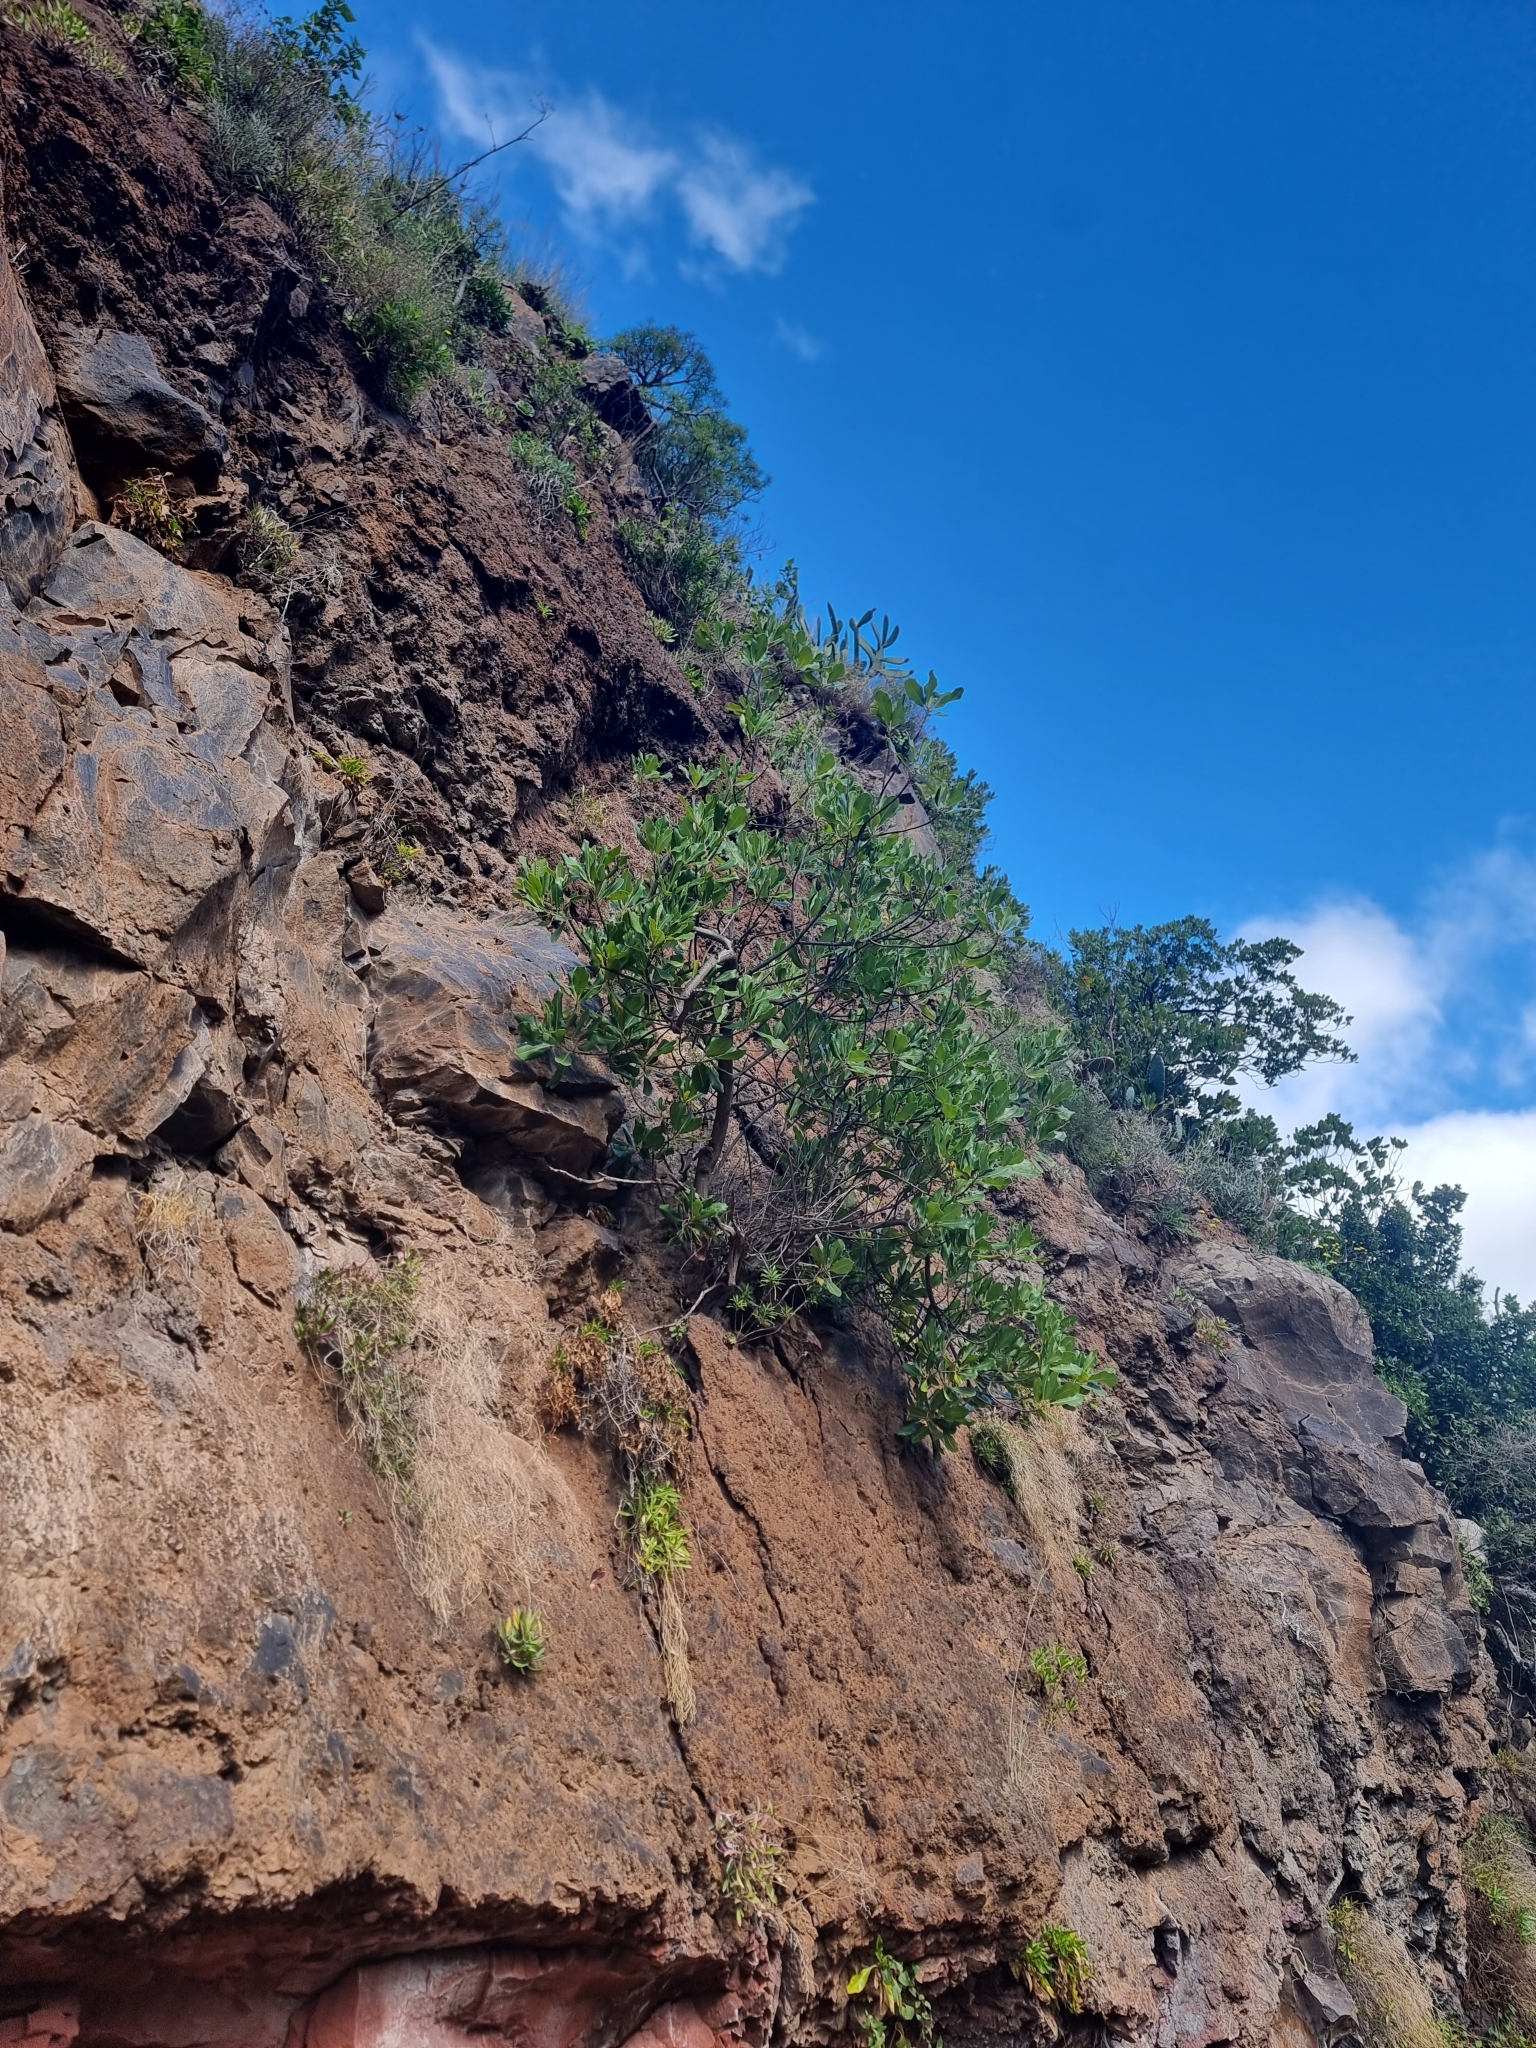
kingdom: Plantae
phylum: Tracheophyta
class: Magnoliopsida
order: Ericales
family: Sapotaceae
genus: Sideroxylon
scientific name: Sideroxylon mirmulans
